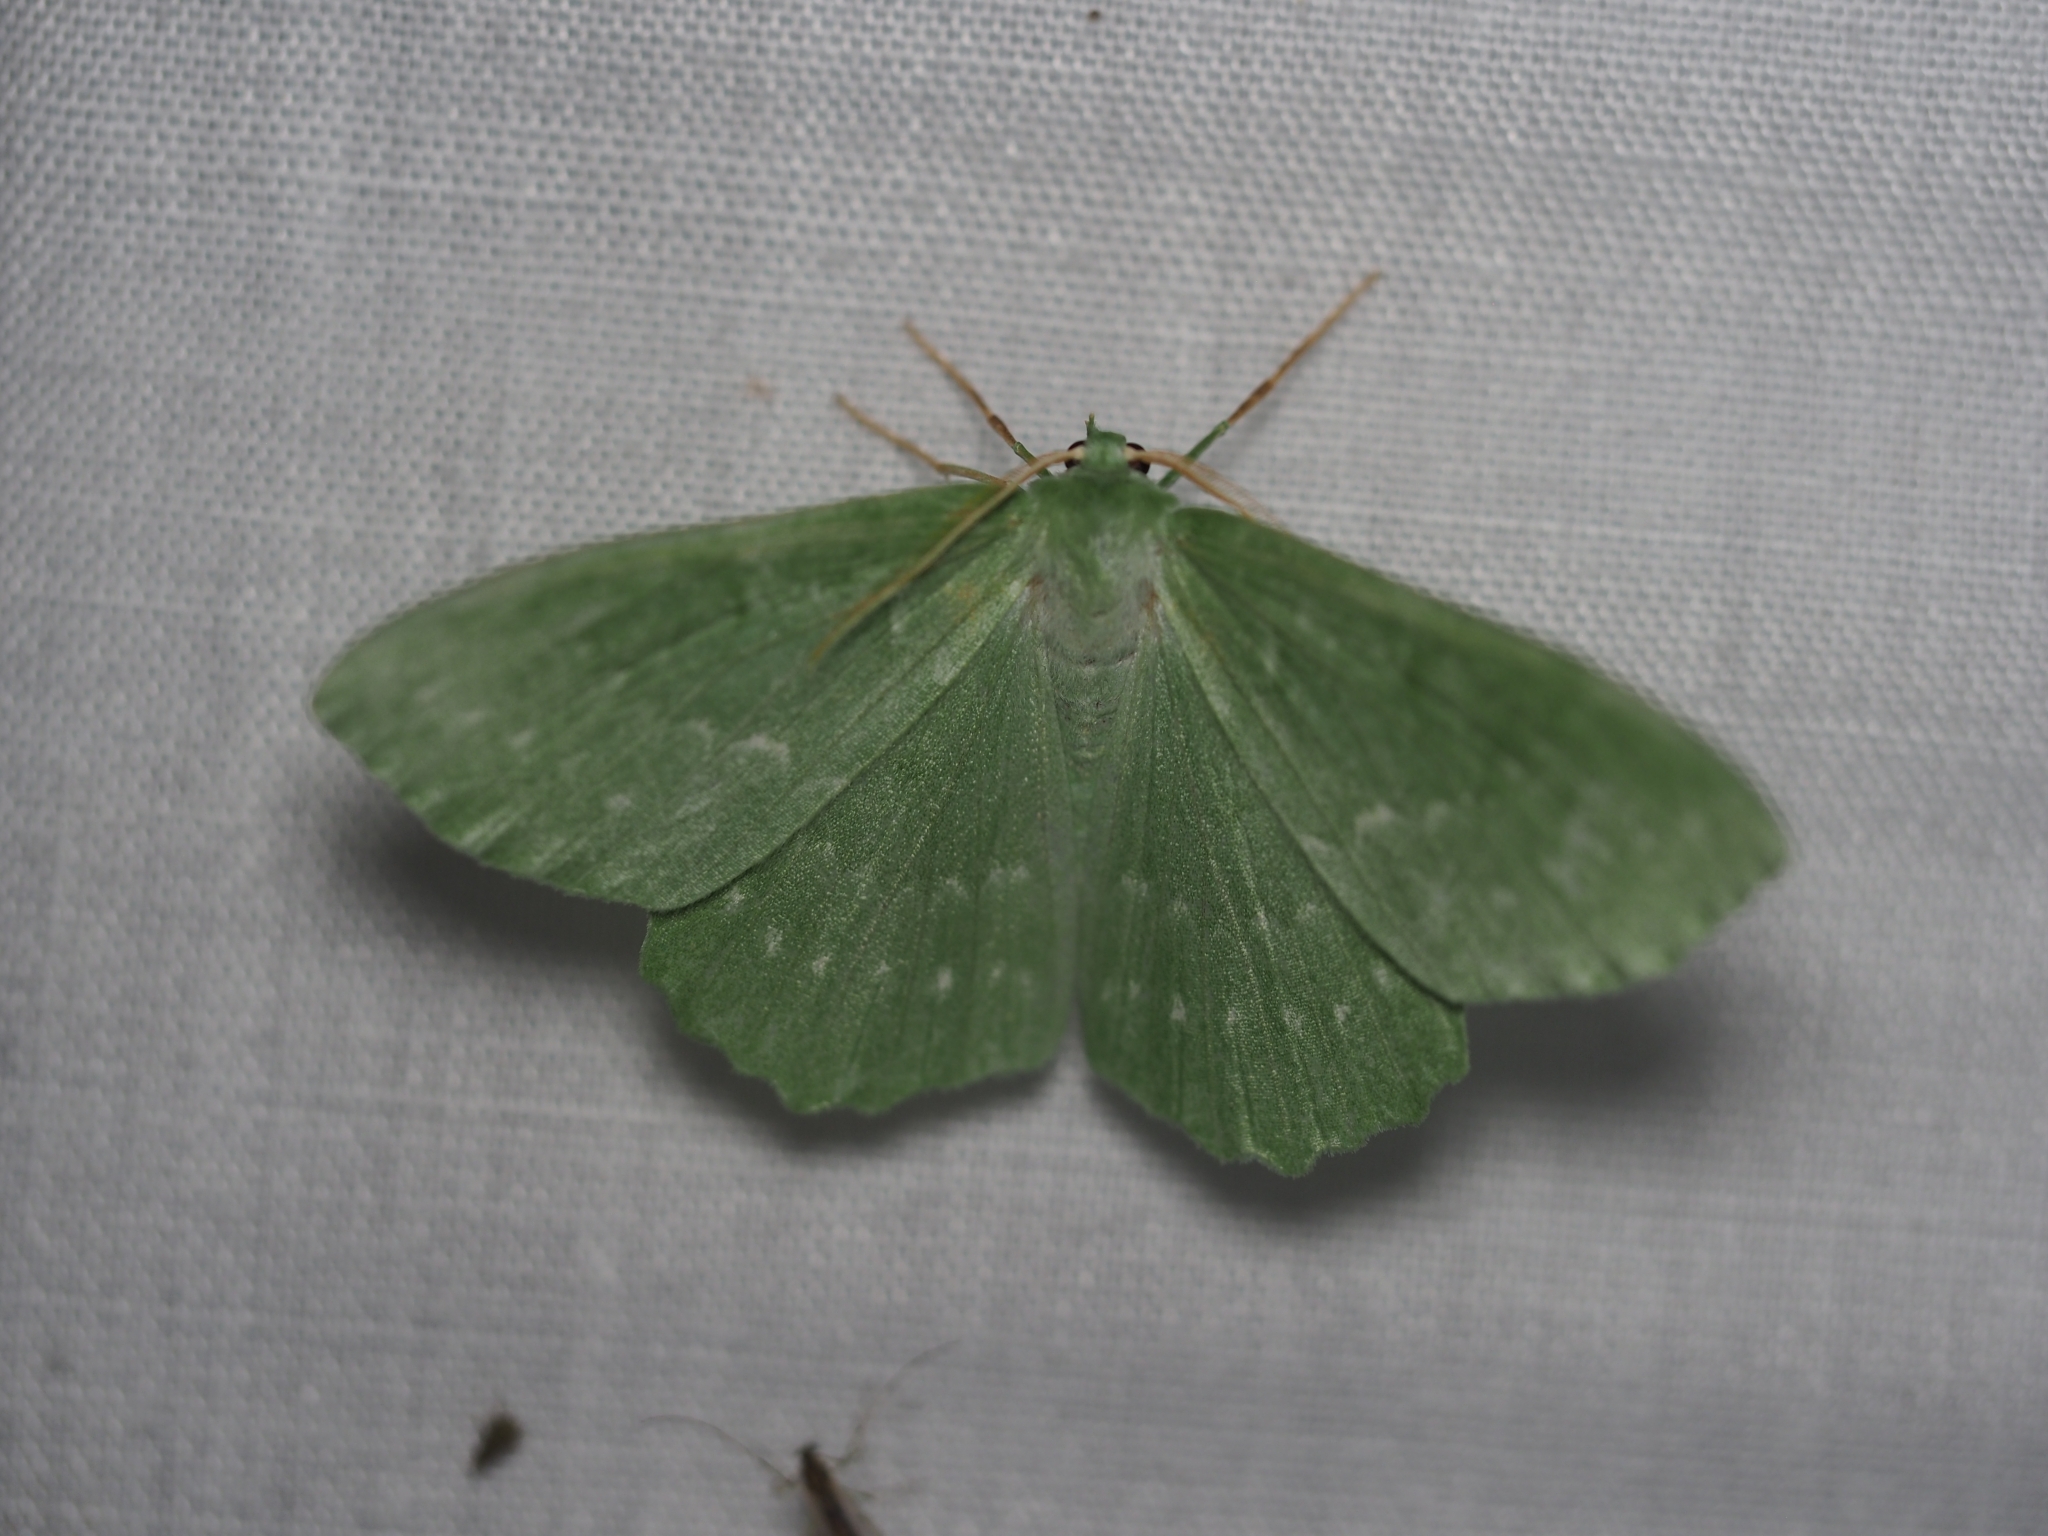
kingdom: Animalia
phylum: Arthropoda
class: Insecta
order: Lepidoptera
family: Geometridae
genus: Geometra
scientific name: Geometra papilionaria
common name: Large emerald
